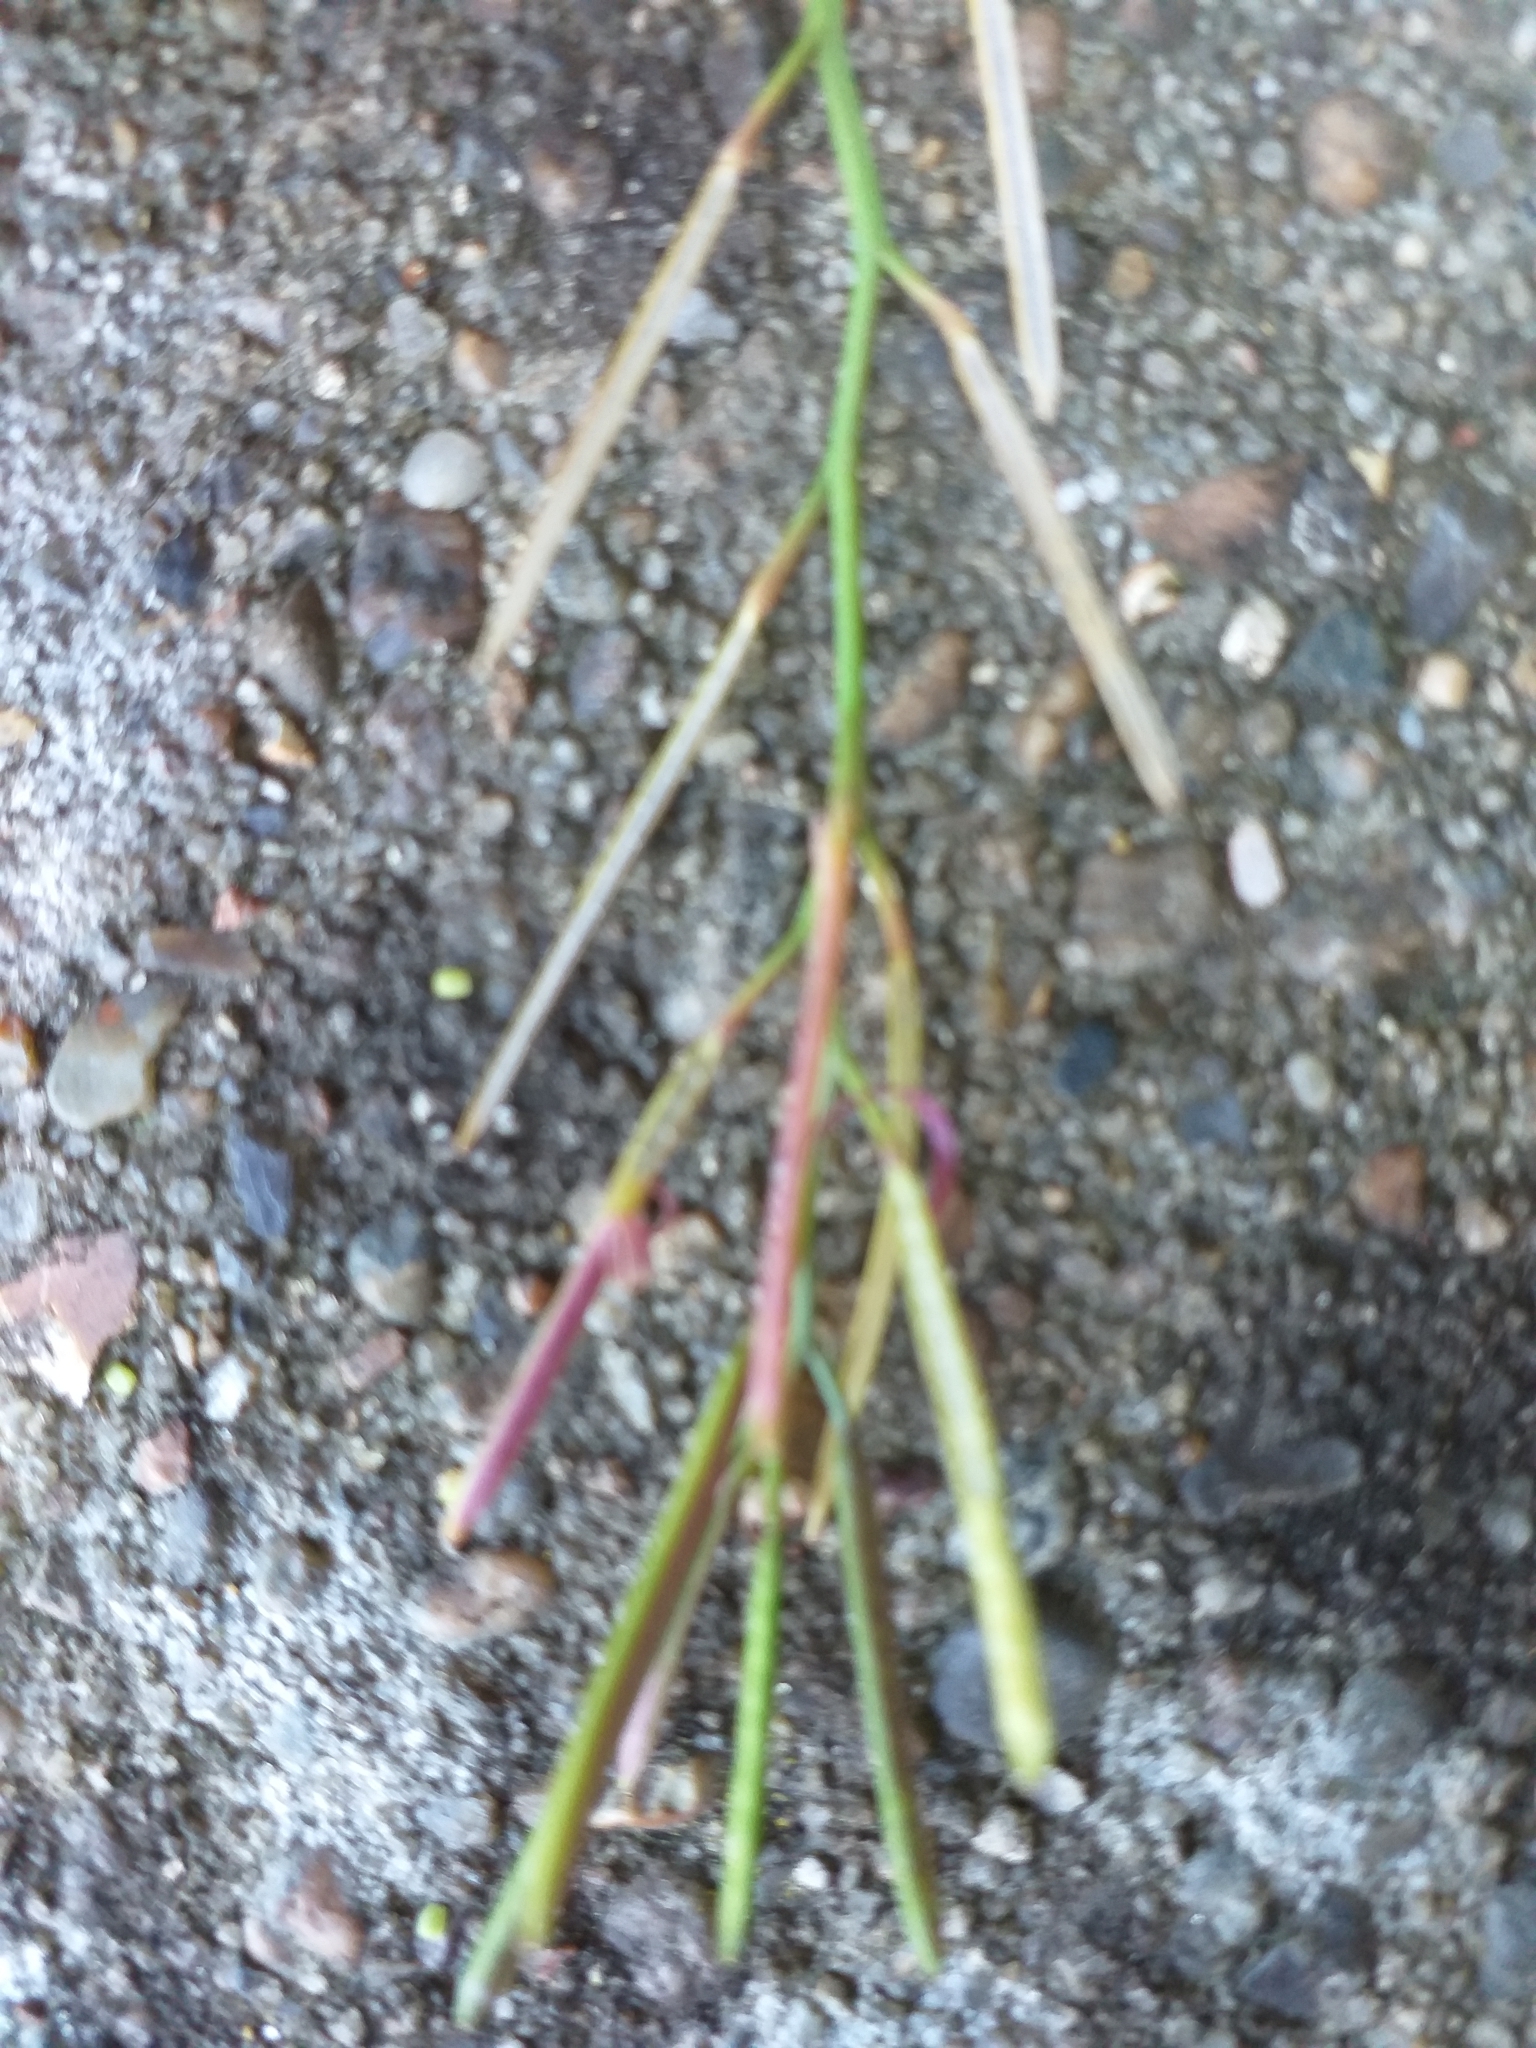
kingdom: Plantae
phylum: Tracheophyta
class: Magnoliopsida
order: Brassicales
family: Brassicaceae
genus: Cardamine
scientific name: Cardamine hirsuta
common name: Hairy bittercress
